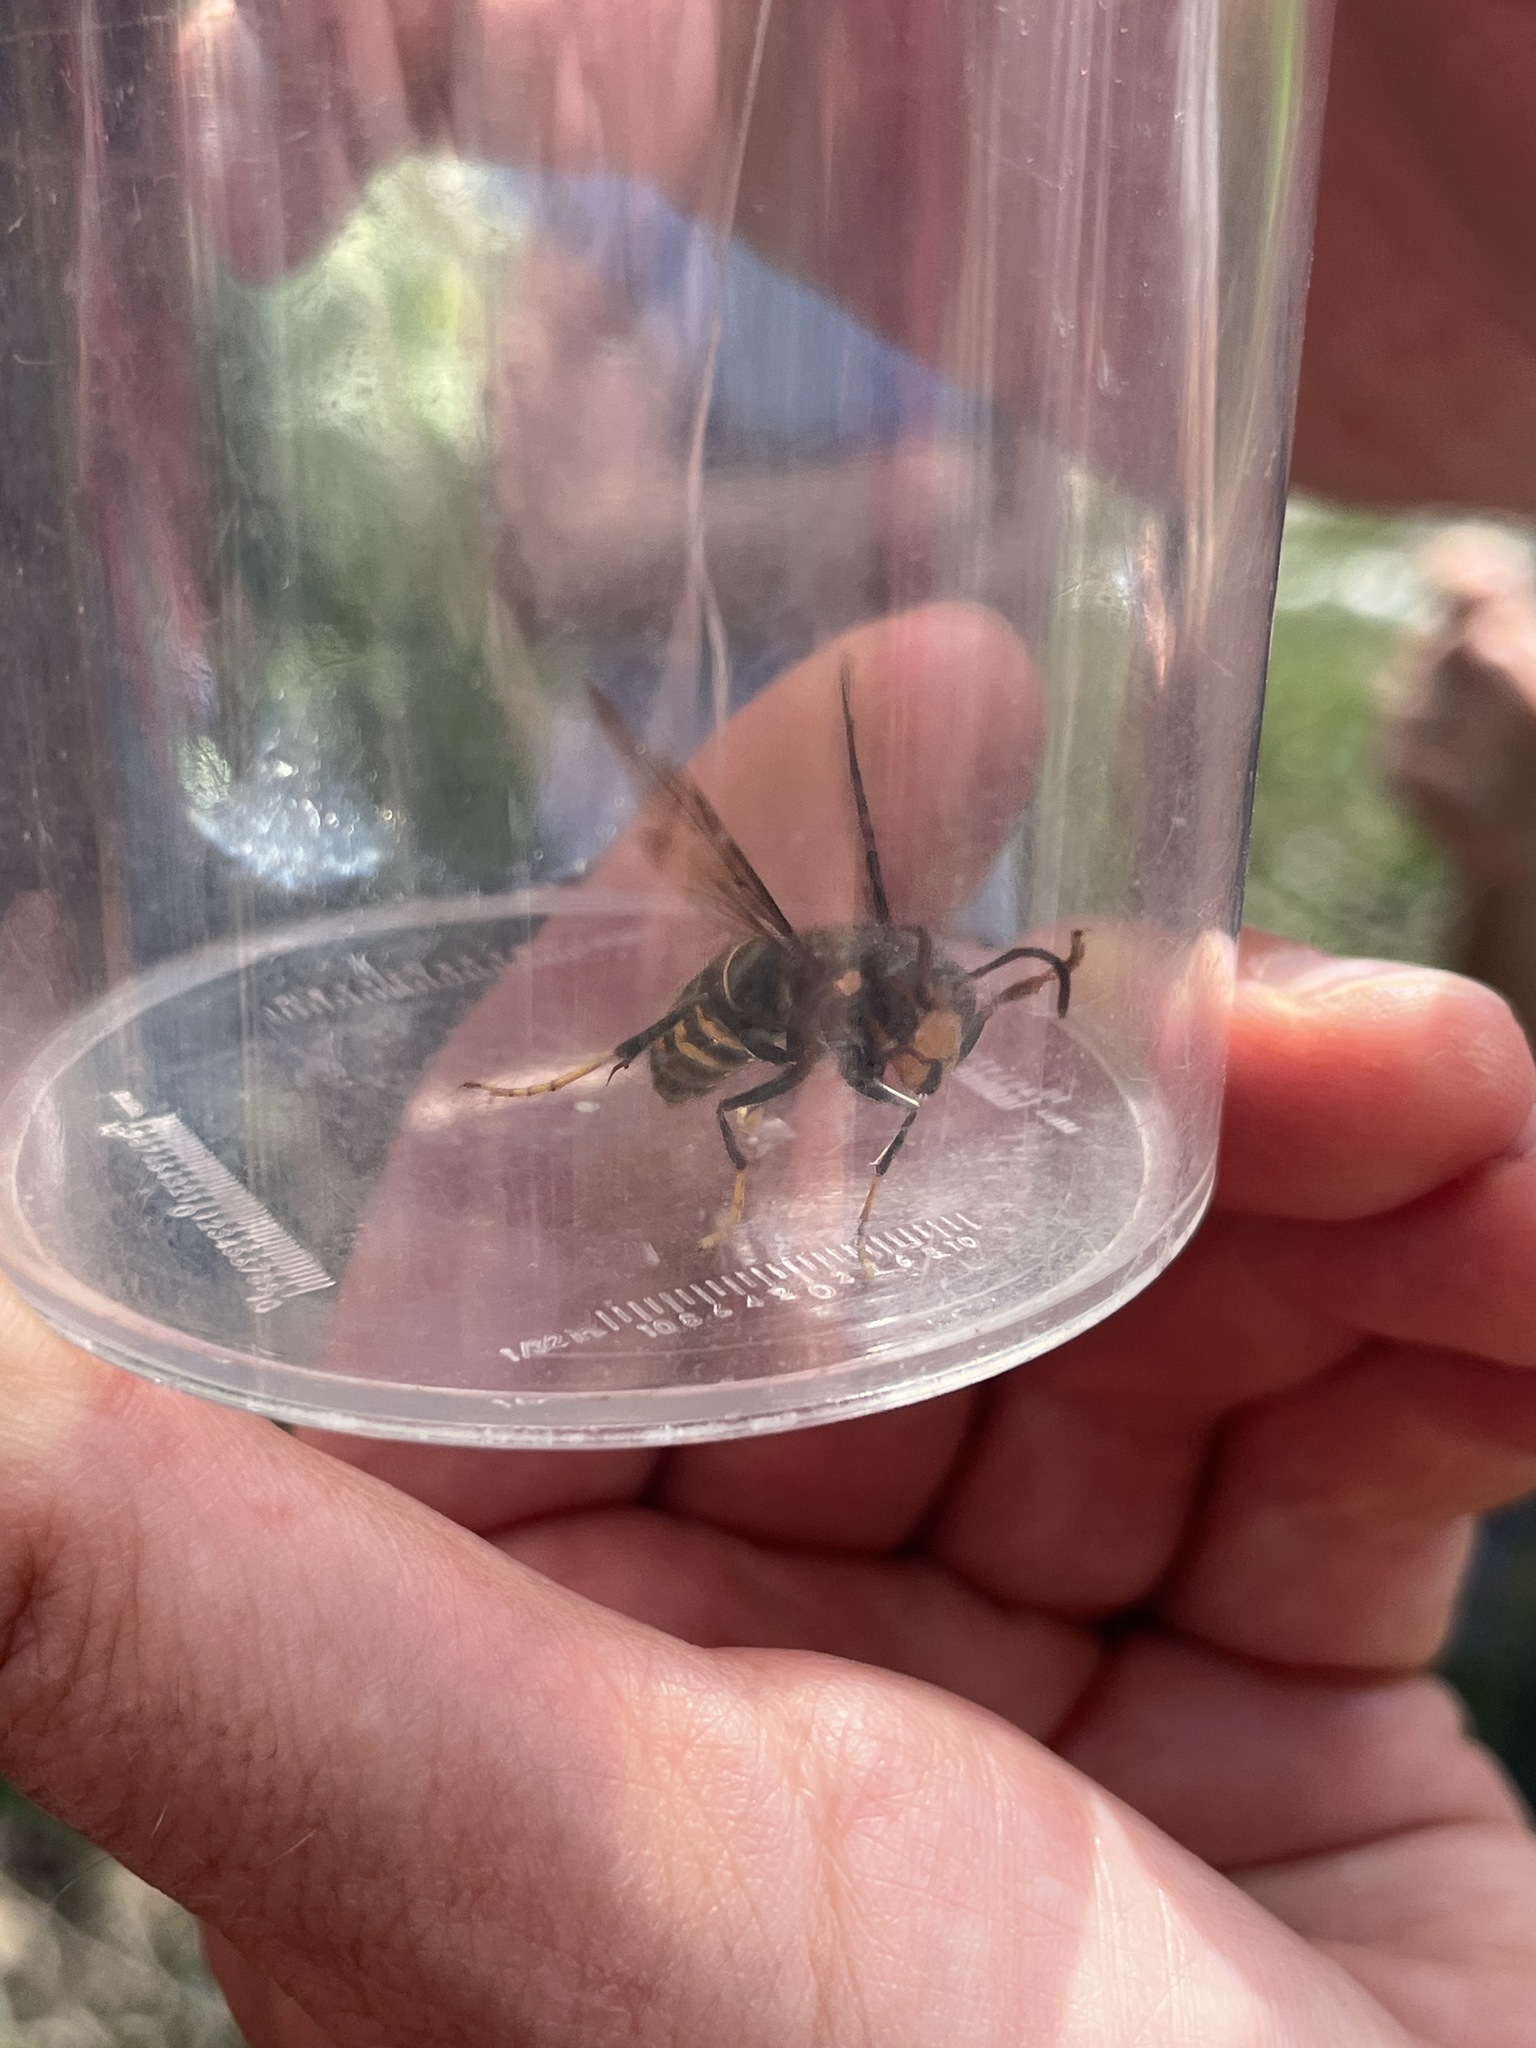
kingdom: Animalia
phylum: Arthropoda
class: Insecta
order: Hymenoptera
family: Vespidae
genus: Vespa
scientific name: Vespa velutina
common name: Asian hornet
